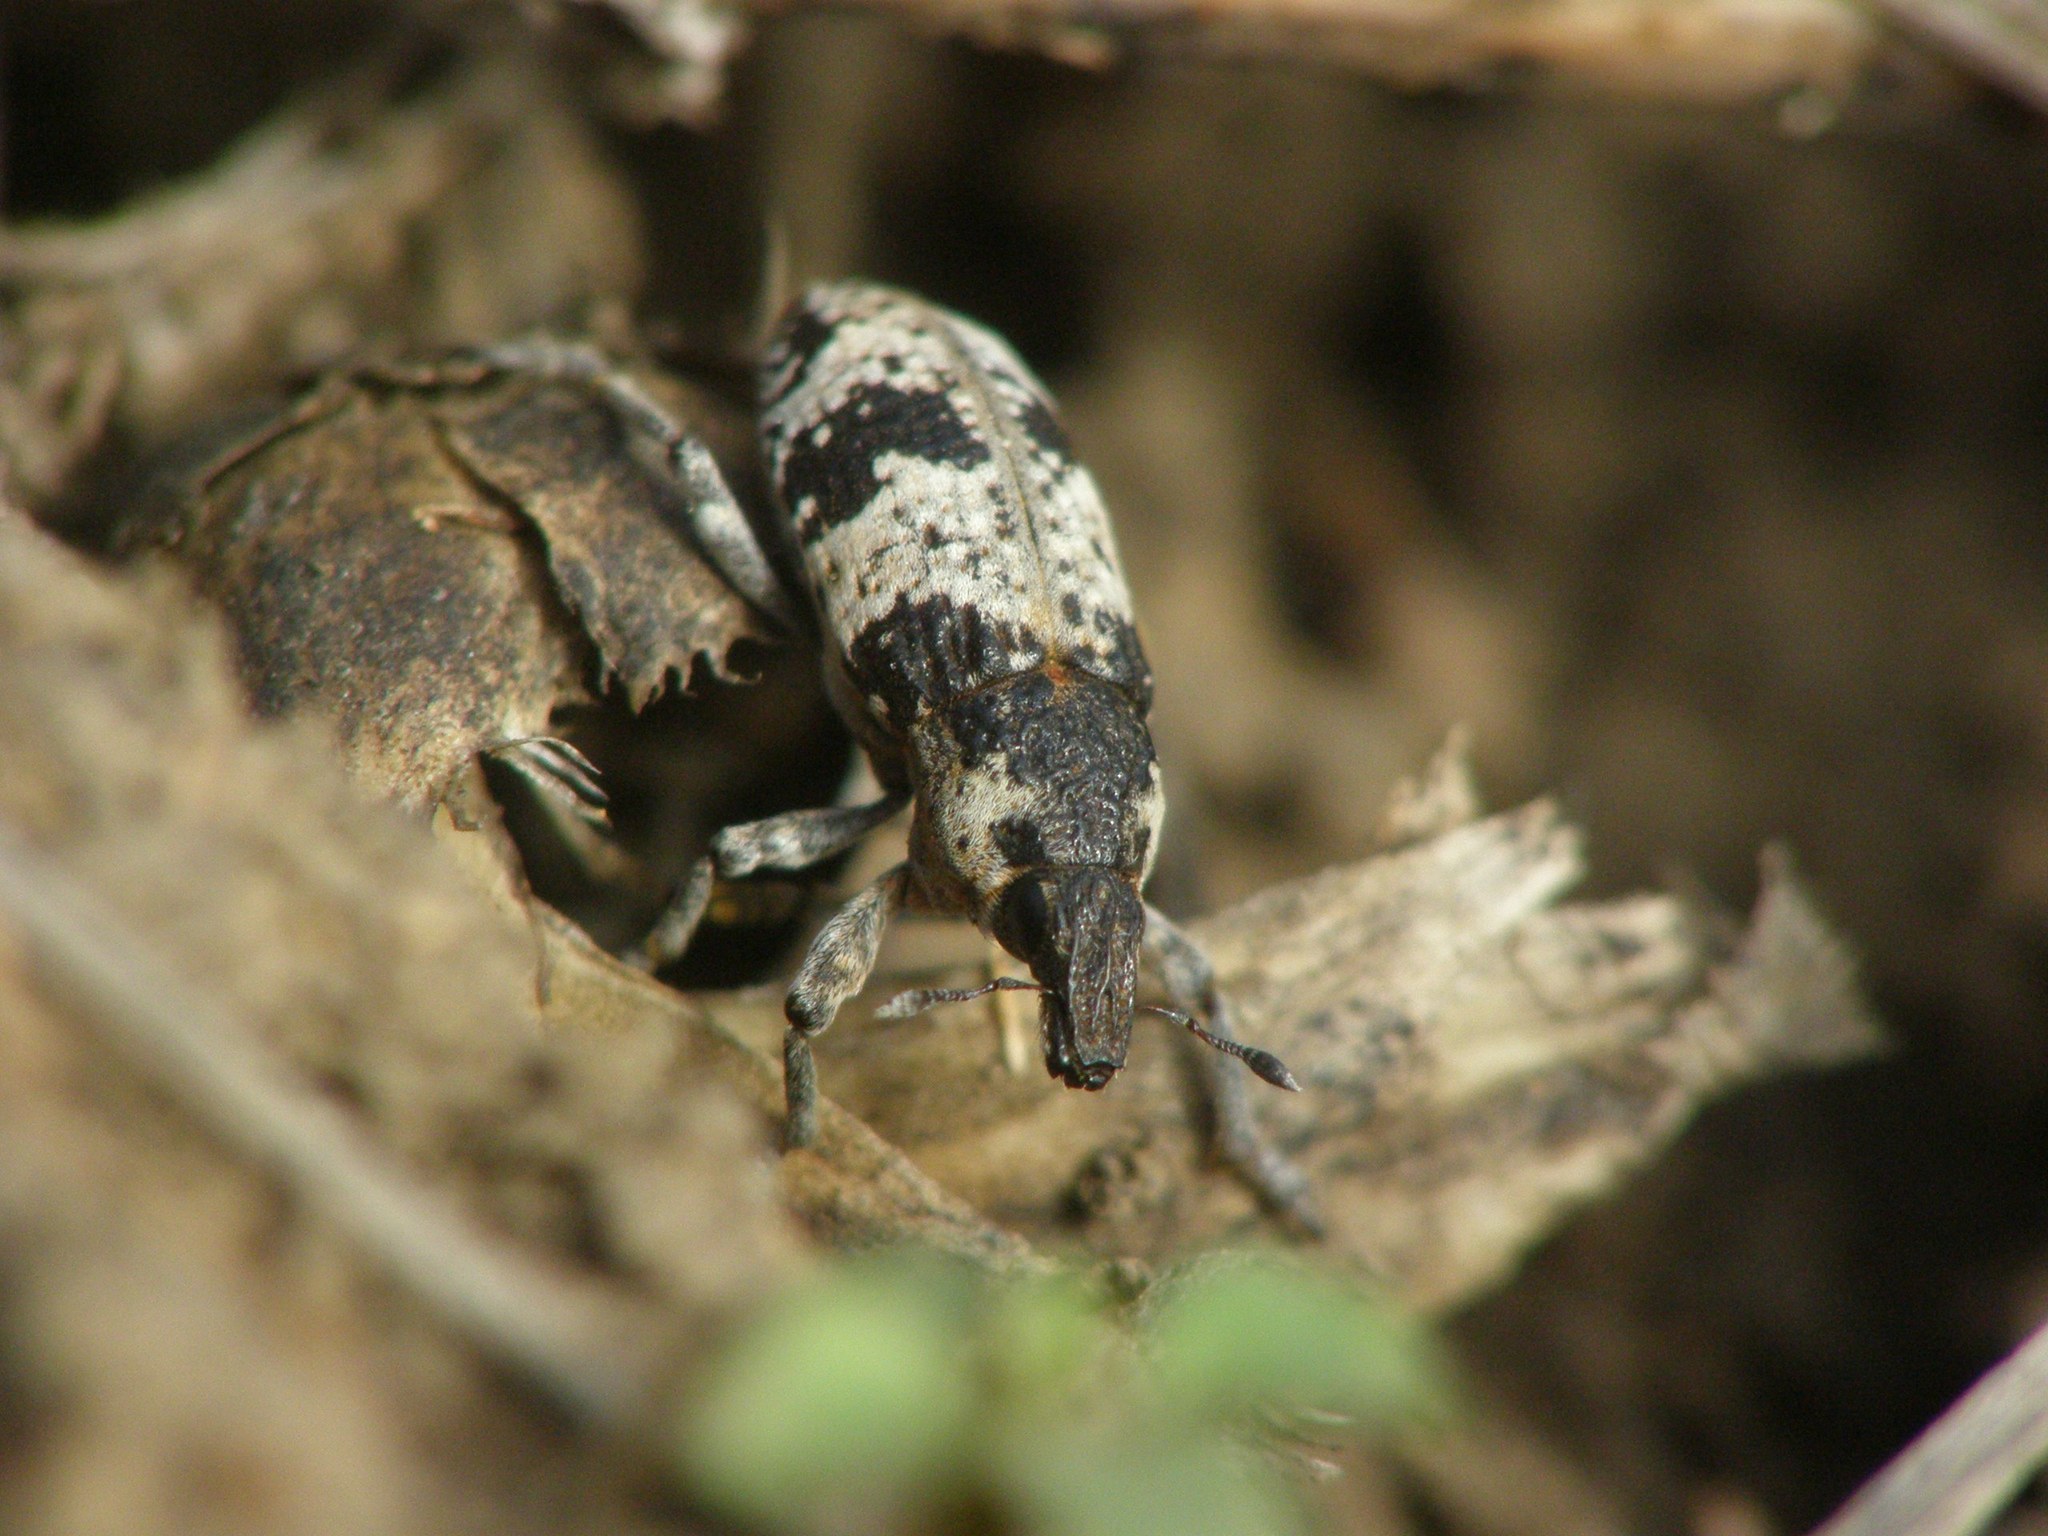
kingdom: Animalia
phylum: Arthropoda
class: Insecta
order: Coleoptera
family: Curculionidae
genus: Bothynoderes
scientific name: Bothynoderes affinis
